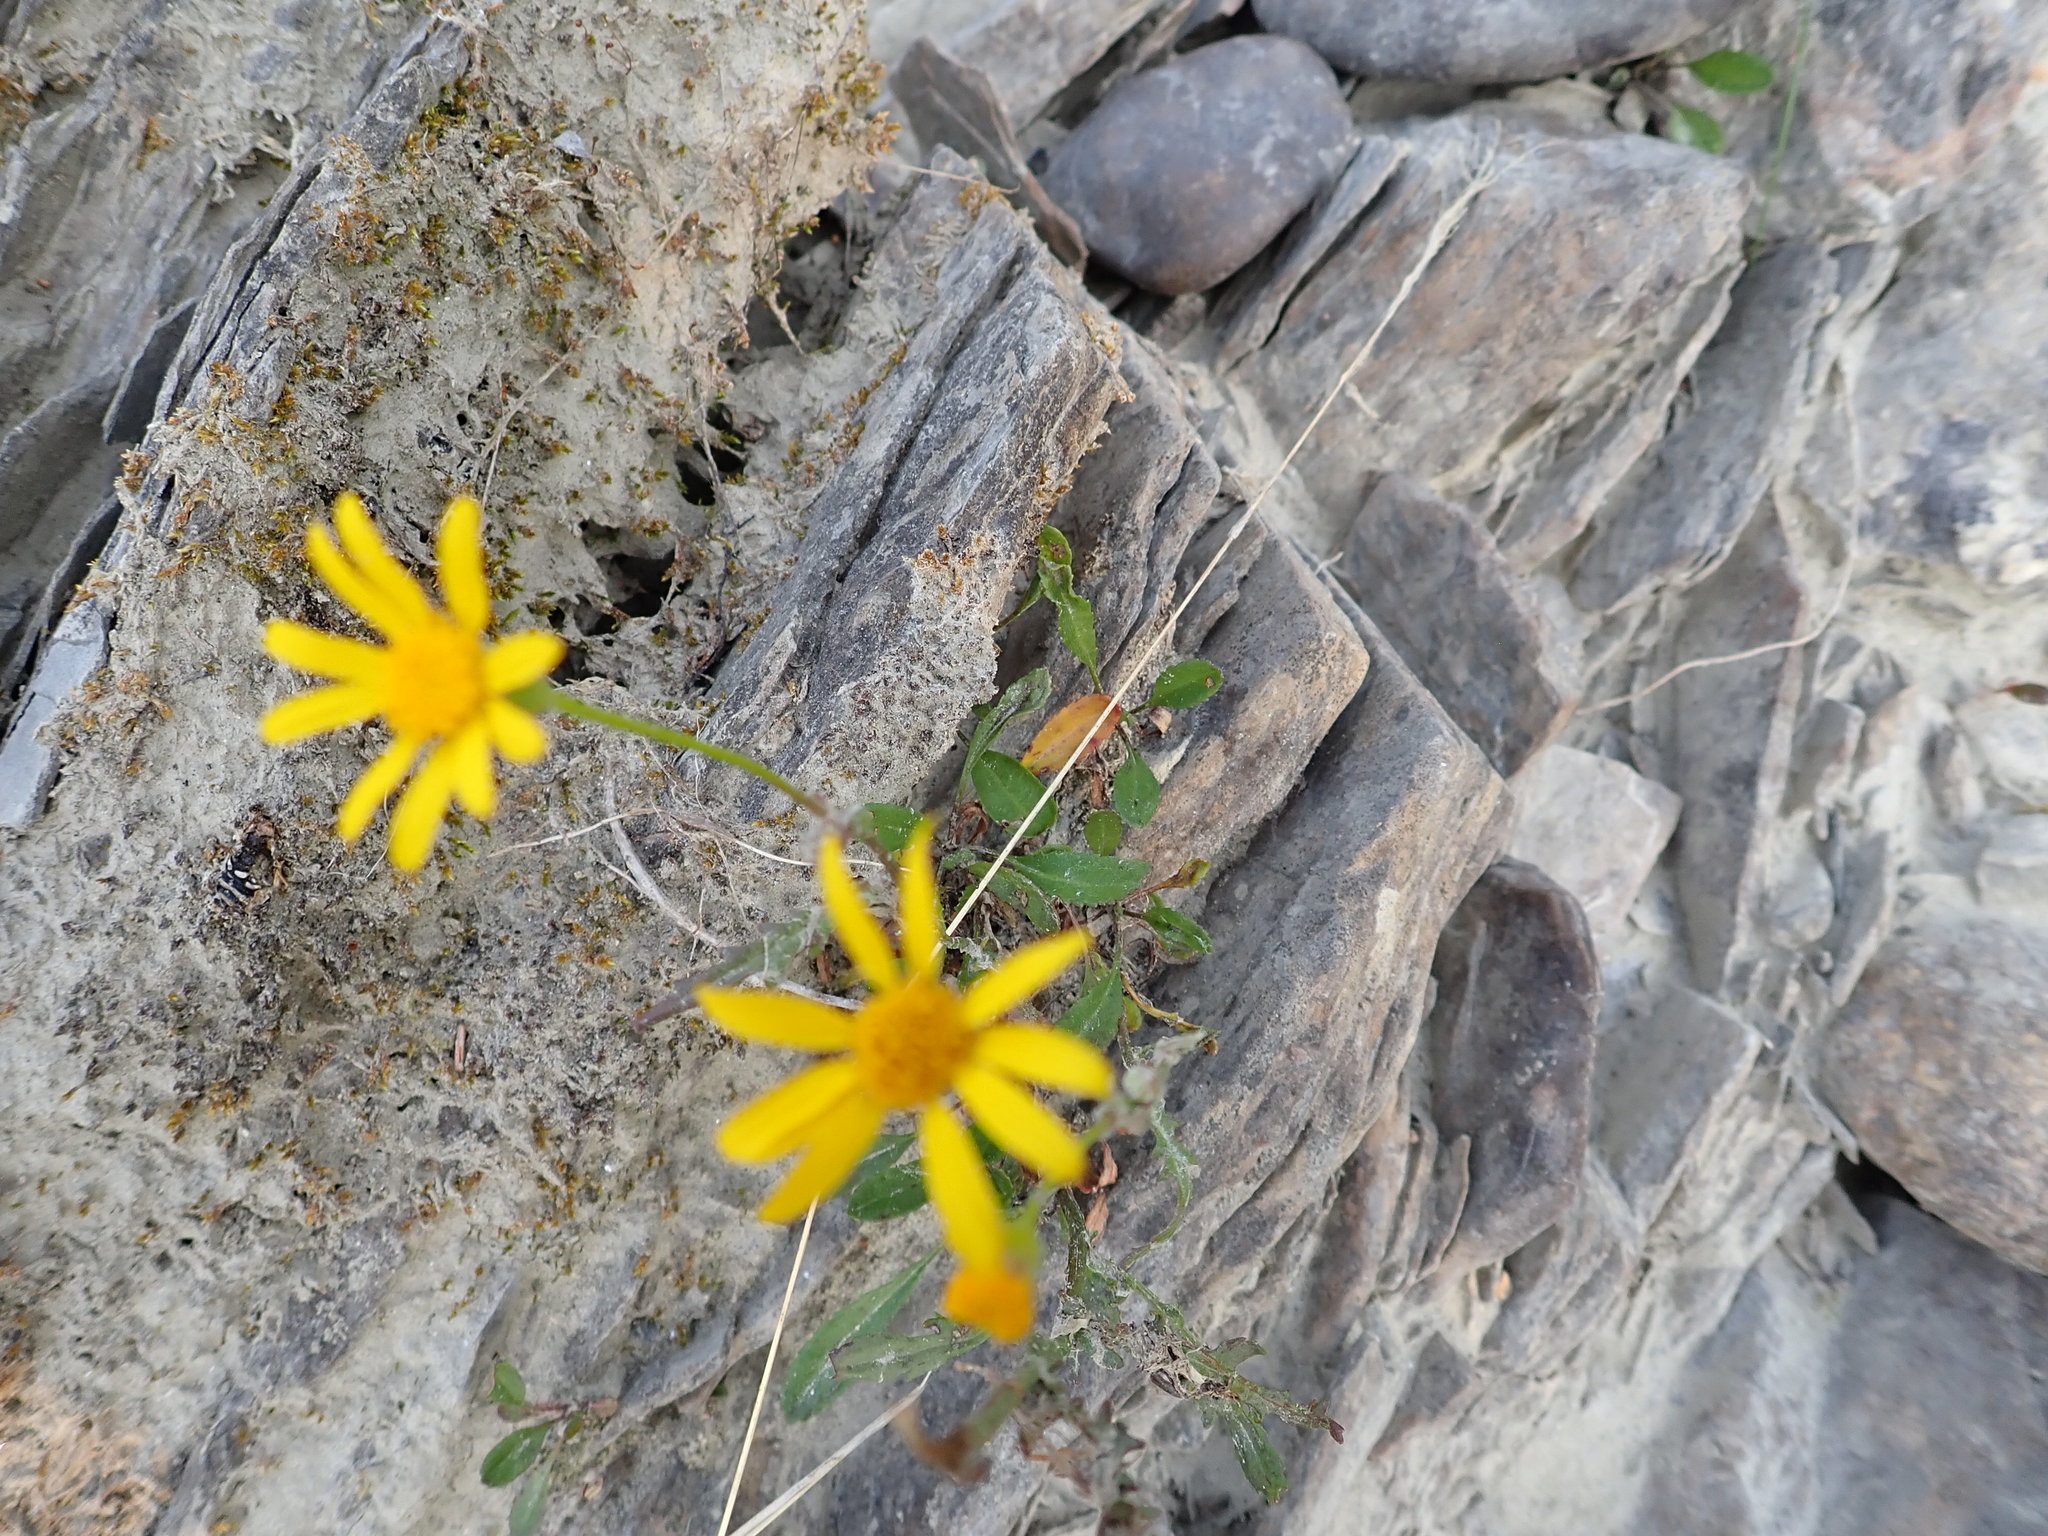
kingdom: Plantae
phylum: Tracheophyta
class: Magnoliopsida
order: Asterales
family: Asteraceae
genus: Packera
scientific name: Packera paupercula
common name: Balsam groundsel
